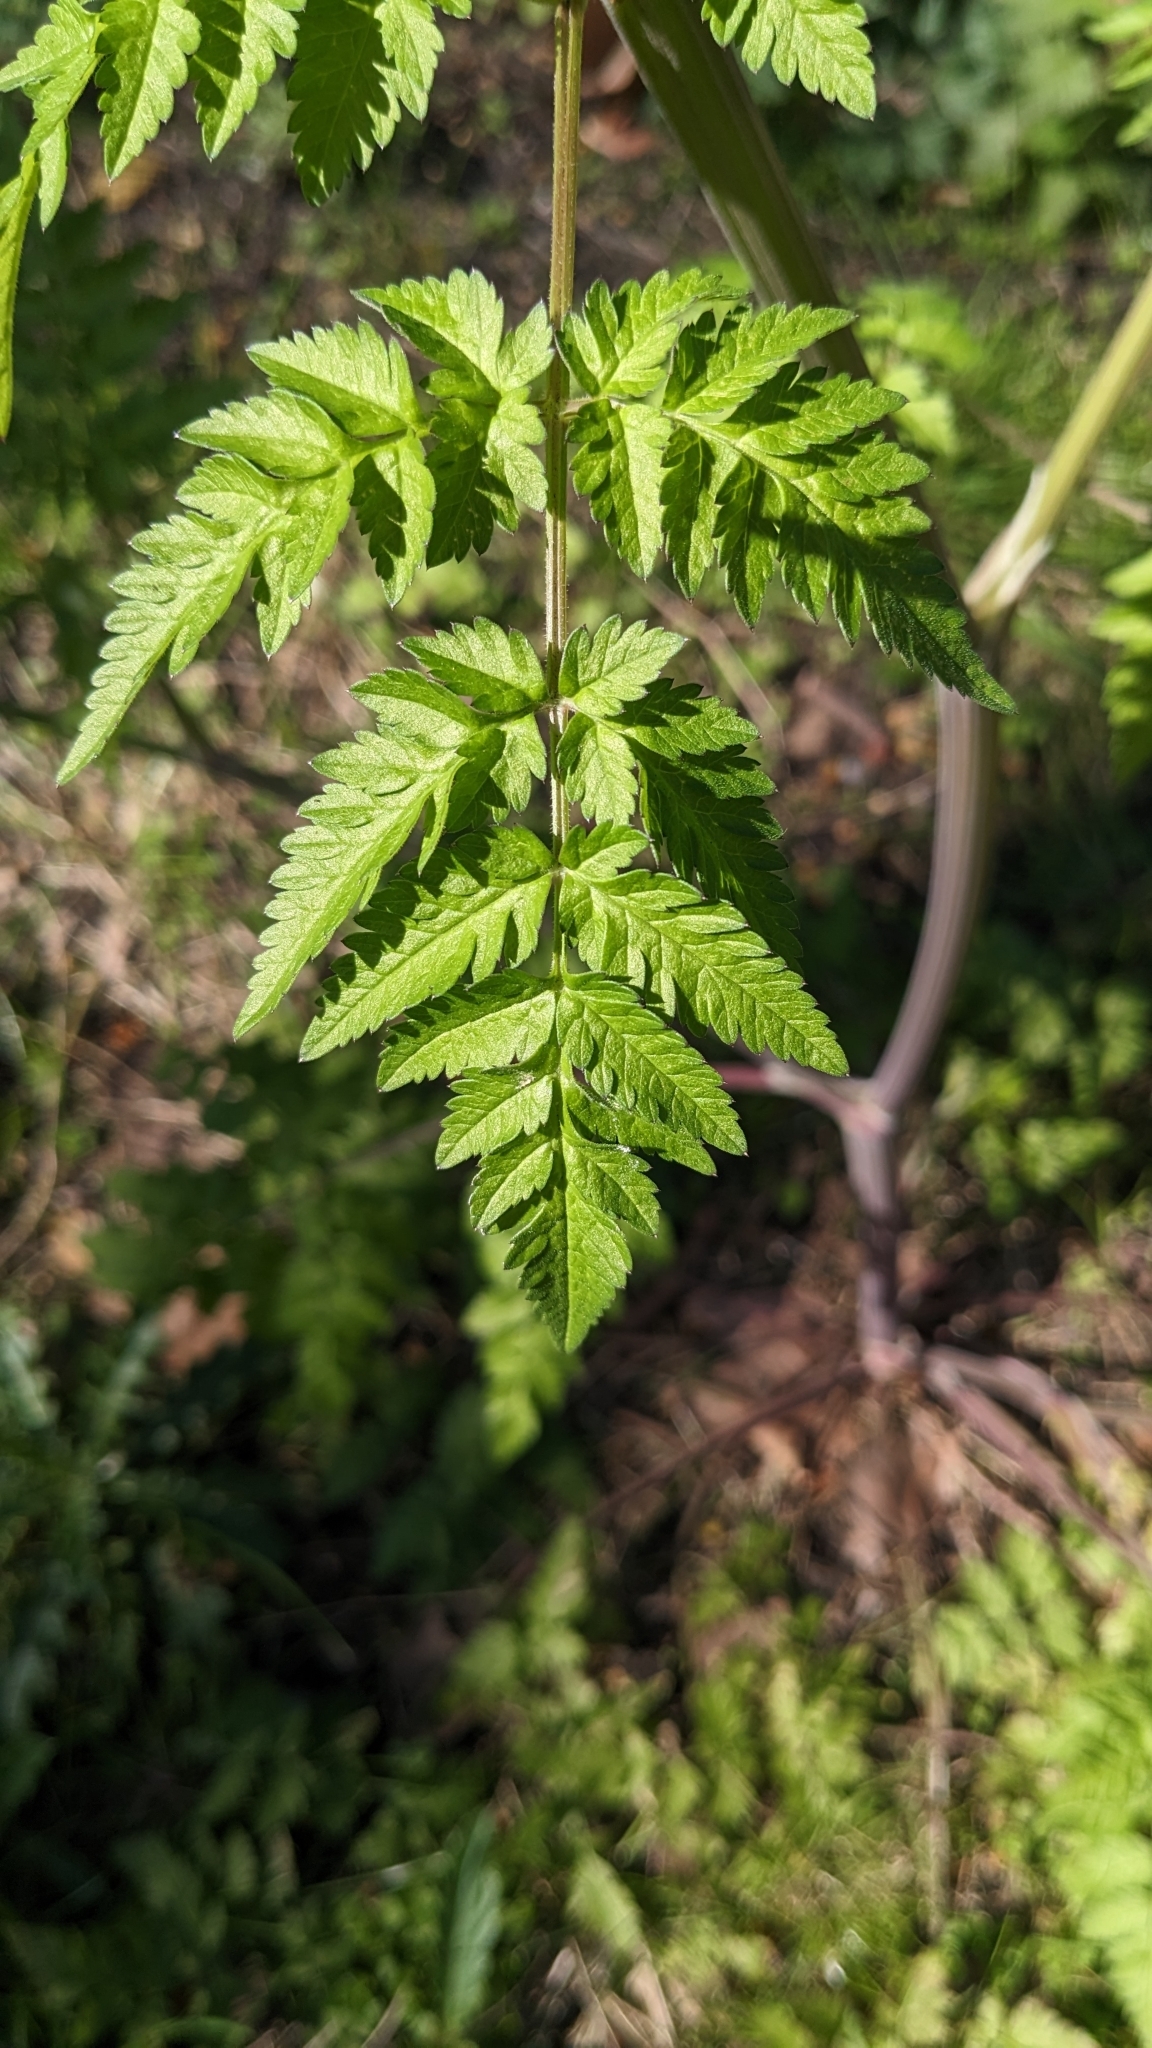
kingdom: Plantae
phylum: Tracheophyta
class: Magnoliopsida
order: Apiales
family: Apiaceae
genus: Anthriscus
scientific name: Anthriscus sylvestris
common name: Cow parsley
